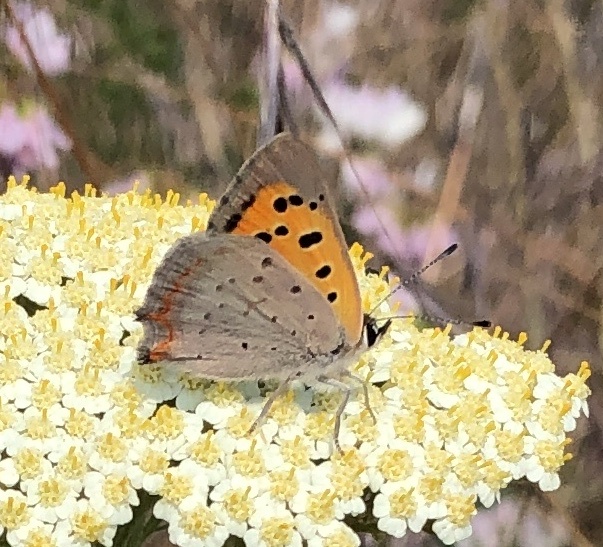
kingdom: Animalia
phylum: Arthropoda
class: Insecta
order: Lepidoptera
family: Lycaenidae
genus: Lycaena
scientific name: Lycaena phlaeas
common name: Small copper
